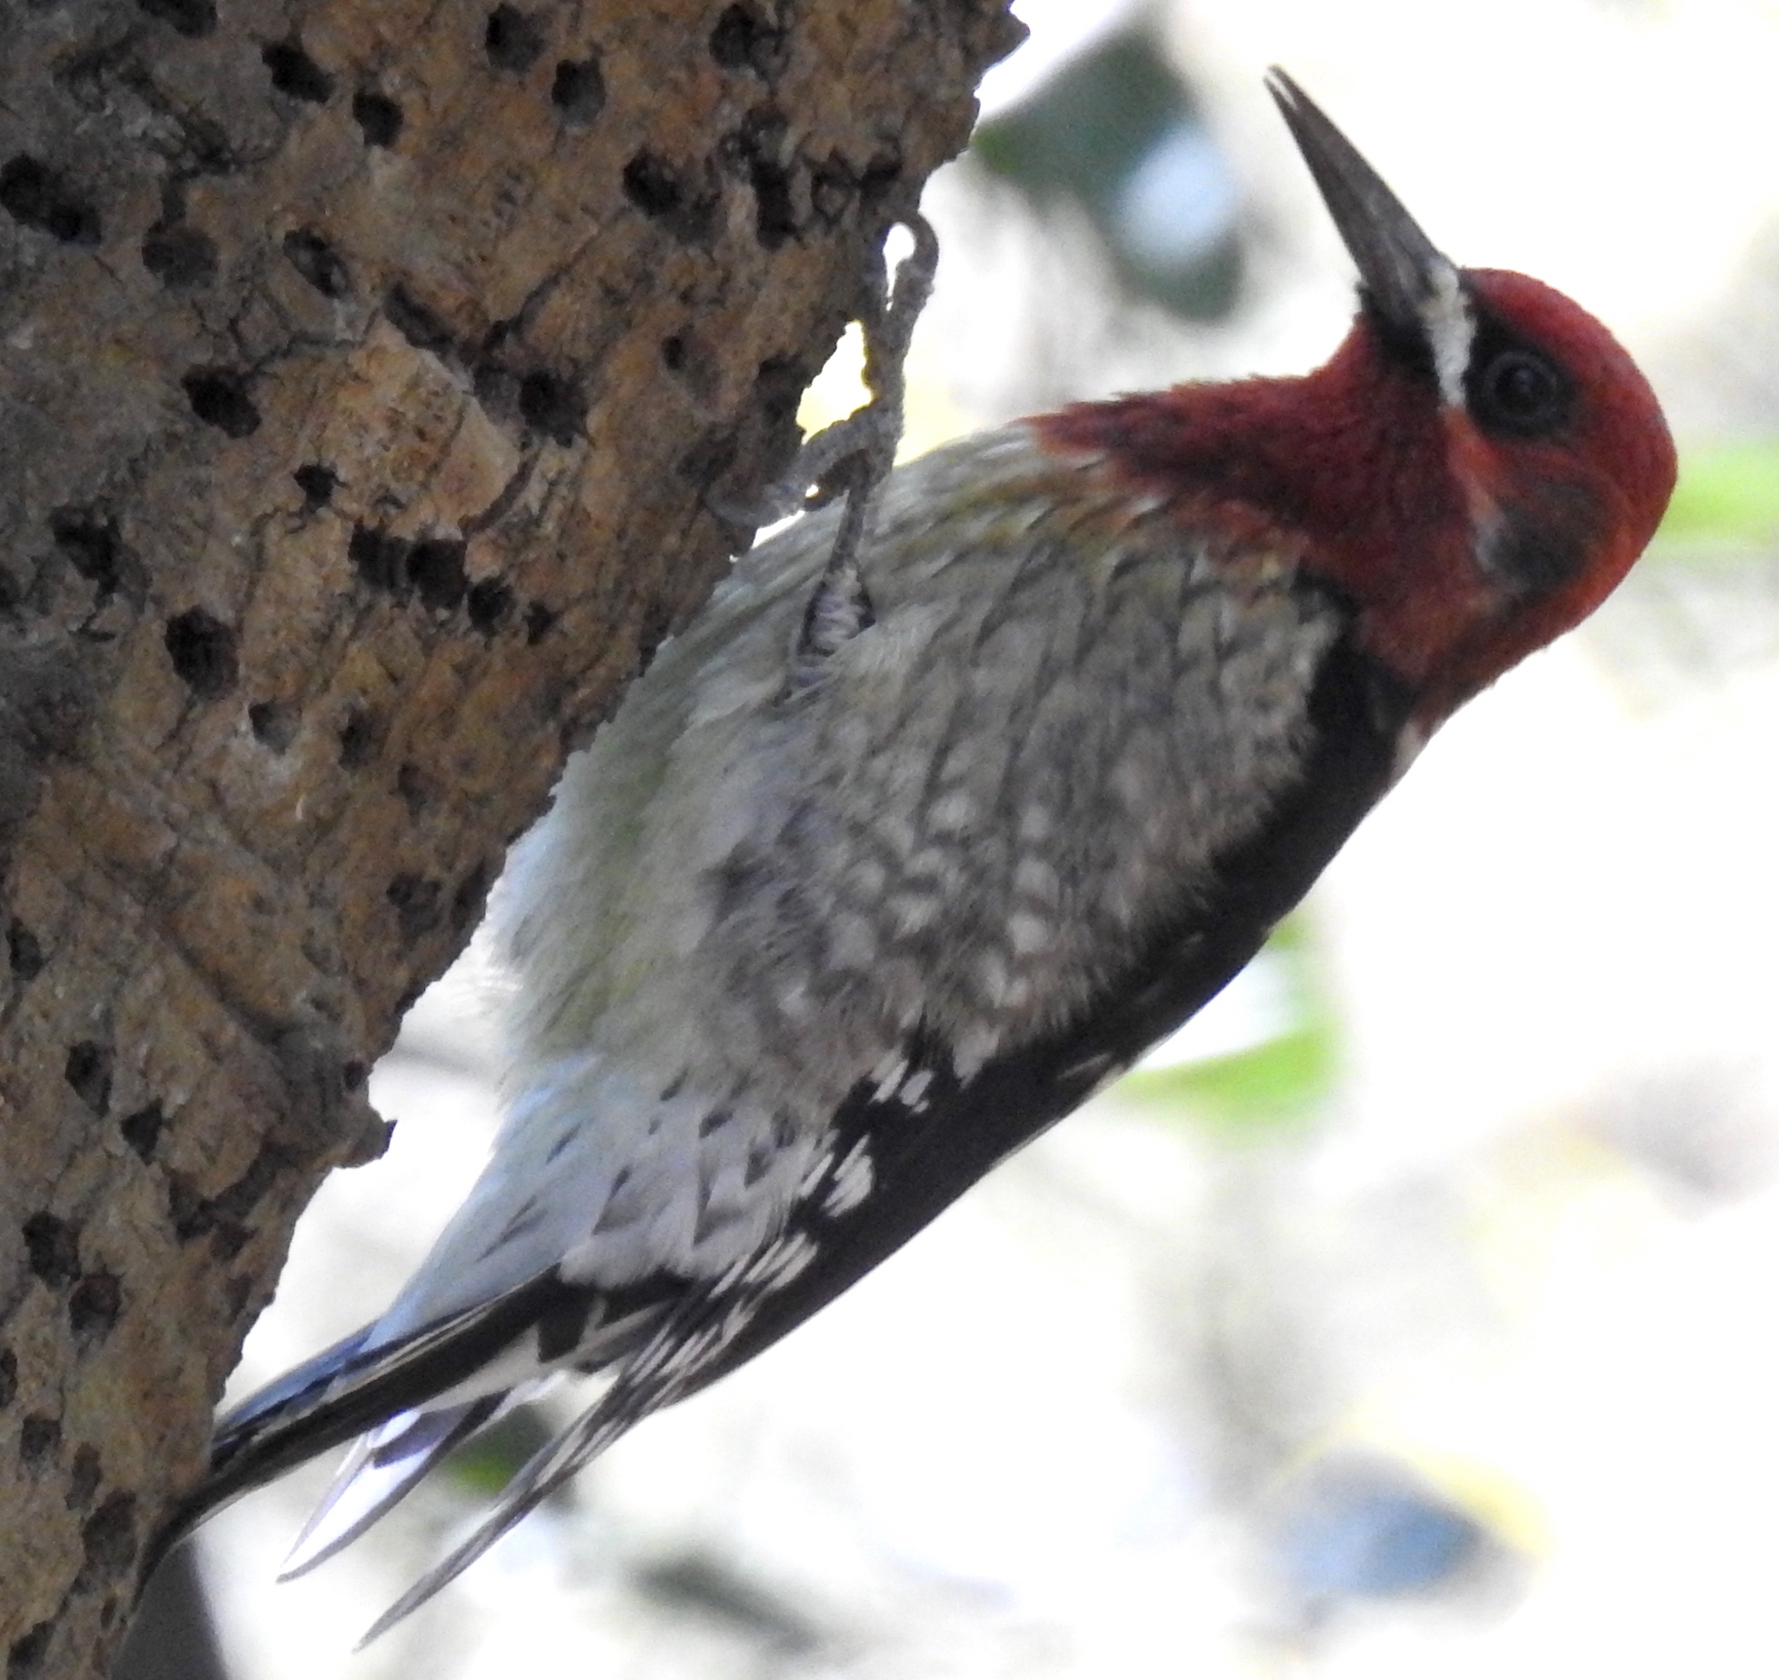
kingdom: Animalia
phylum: Chordata
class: Aves
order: Piciformes
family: Picidae
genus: Sphyrapicus
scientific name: Sphyrapicus ruber
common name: Red-breasted sapsucker
